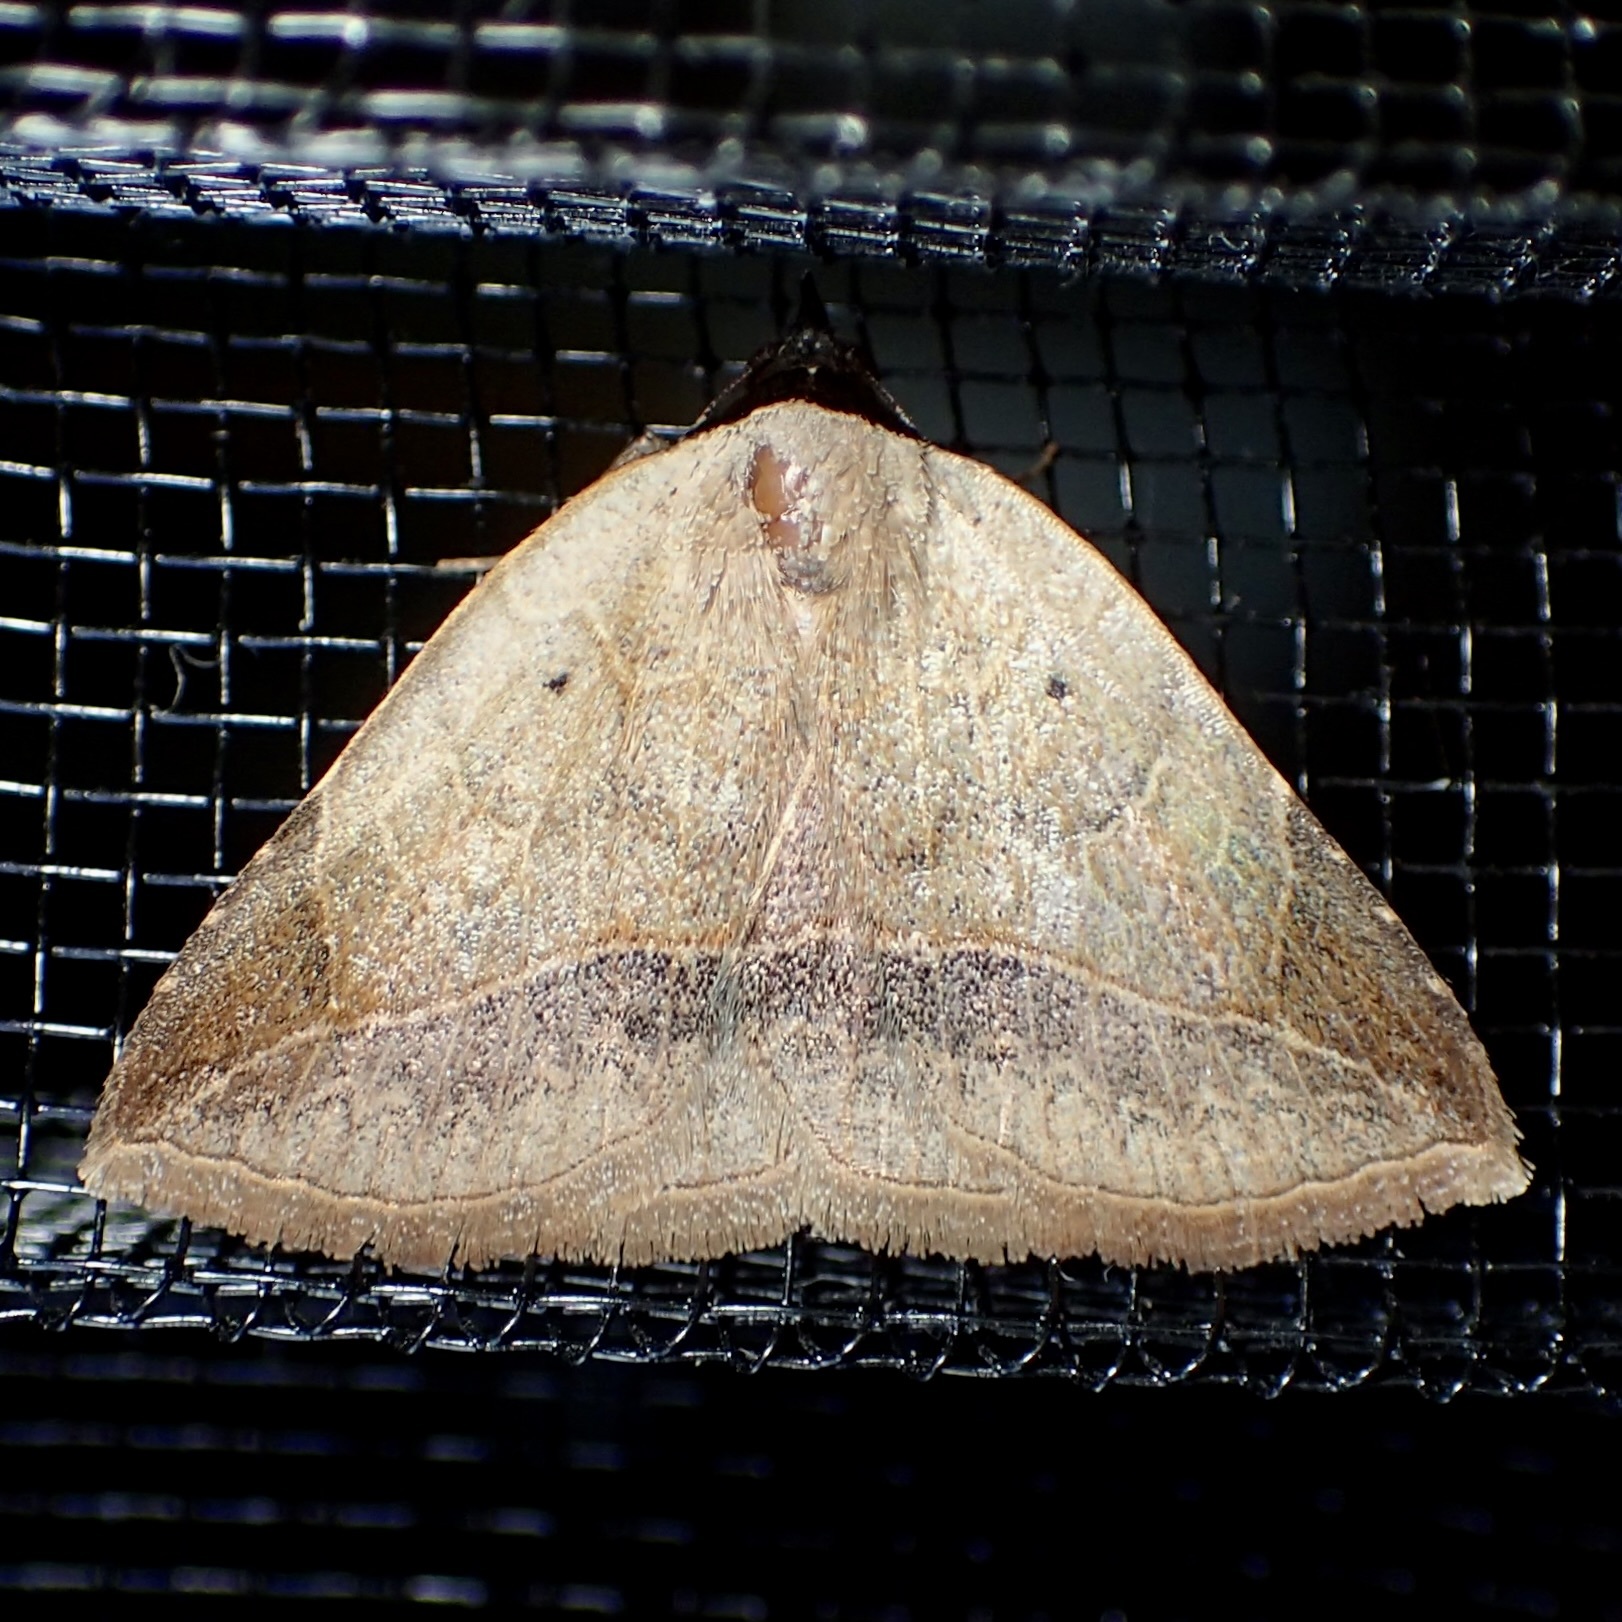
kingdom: Animalia
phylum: Arthropoda
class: Insecta
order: Lepidoptera
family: Erebidae
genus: Isogona
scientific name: Isogona segura
